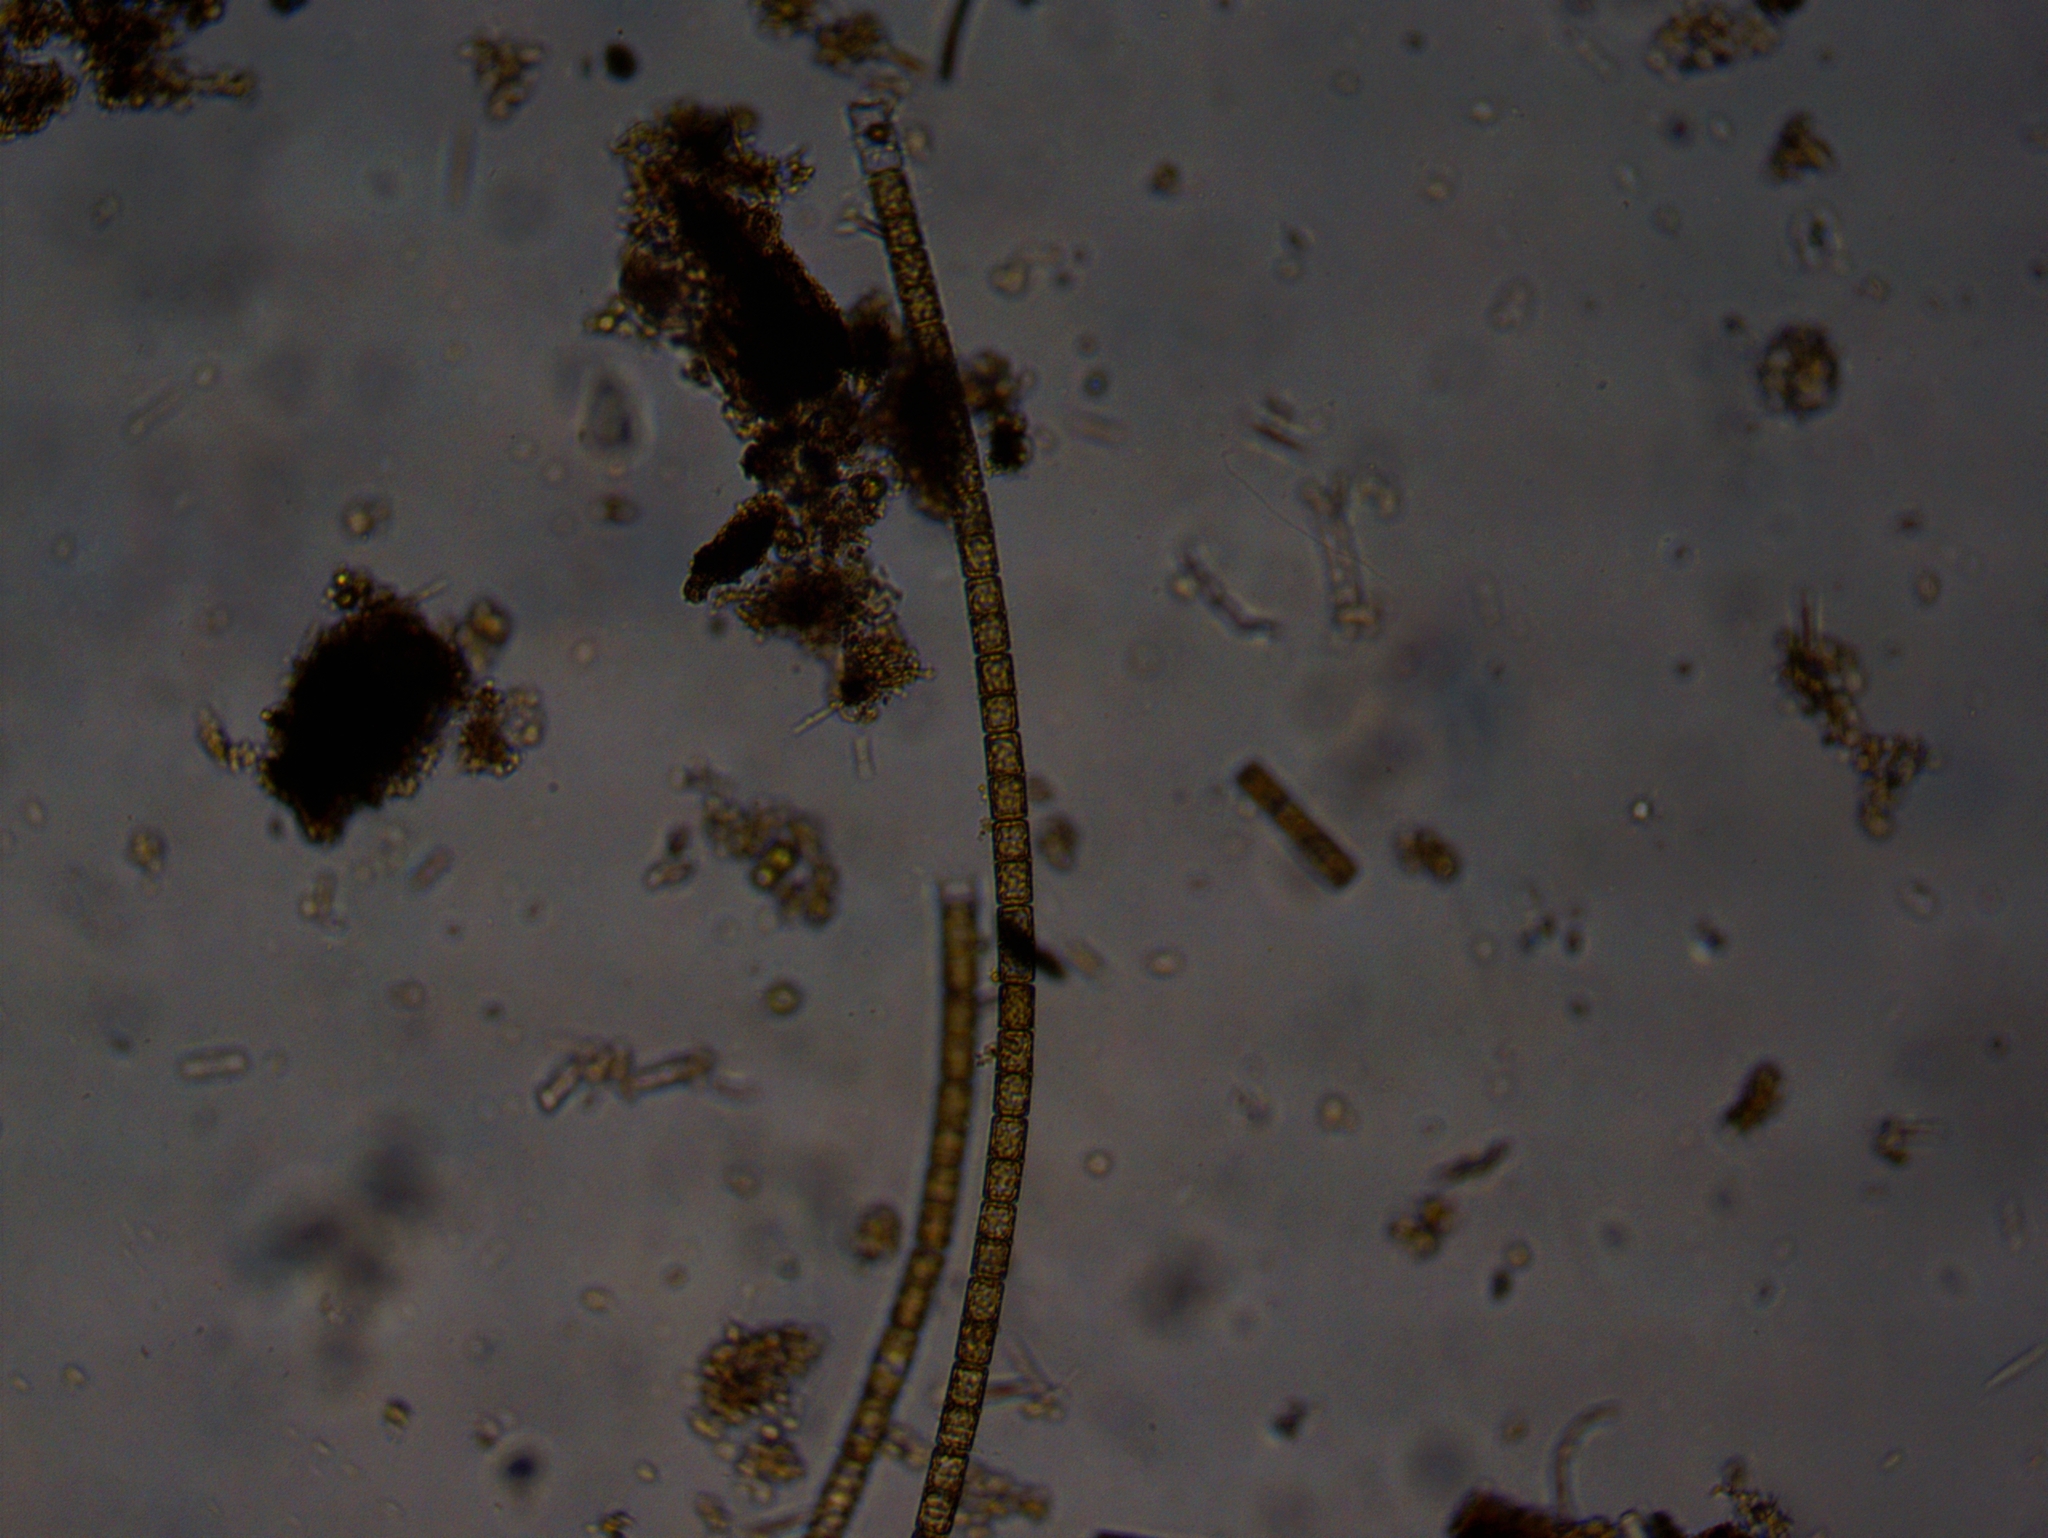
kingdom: Chromista
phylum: Ochrophyta
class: Bacillariophyceae
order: Melosirales
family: Melosiraceae
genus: Melosira
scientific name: Melosira varians
